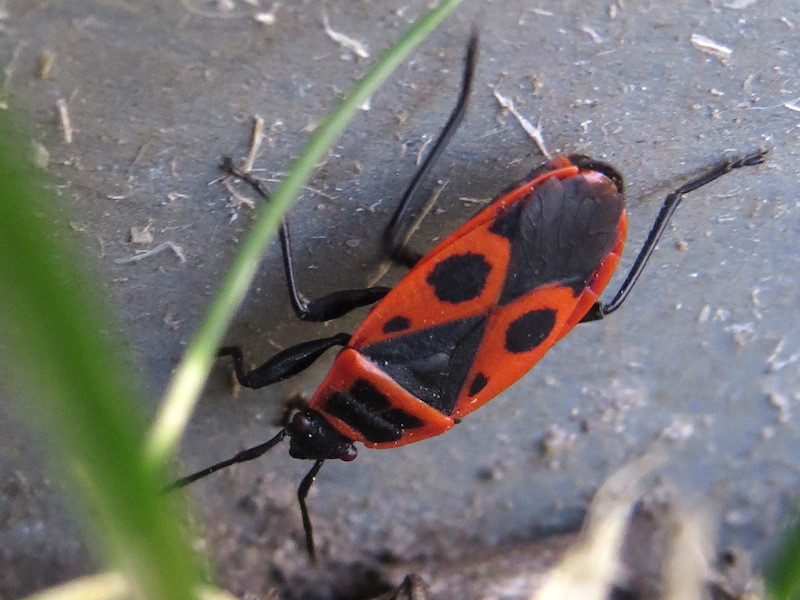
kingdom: Animalia
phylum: Arthropoda
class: Insecta
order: Hemiptera
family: Pyrrhocoridae
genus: Pyrrhocoris
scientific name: Pyrrhocoris apterus
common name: Firebug
